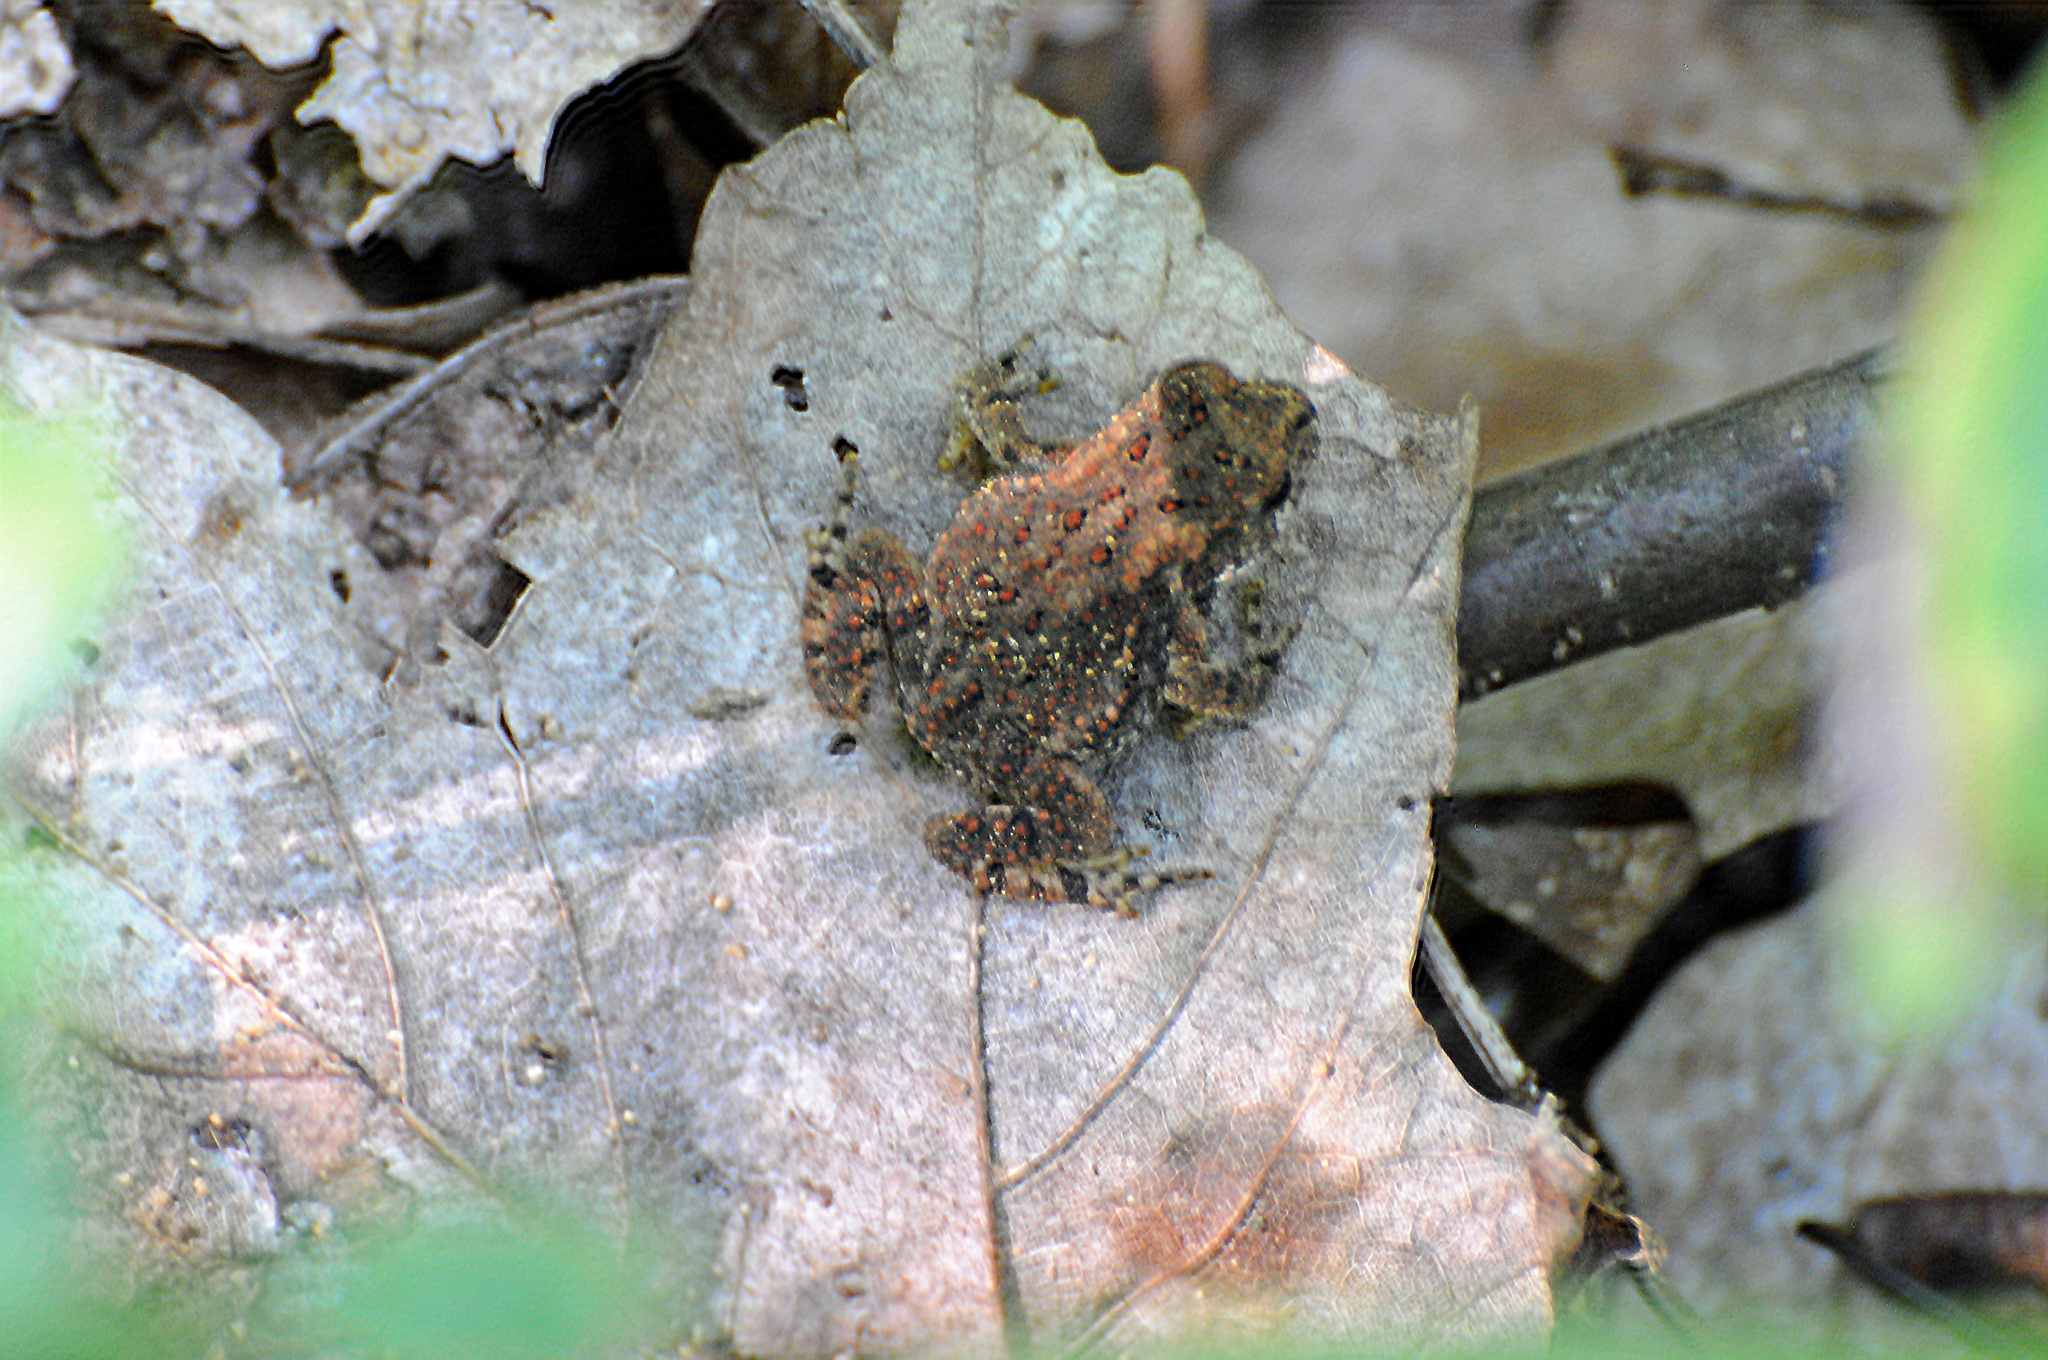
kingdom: Animalia
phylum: Chordata
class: Amphibia
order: Anura
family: Bufonidae
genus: Anaxyrus
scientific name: Anaxyrus americanus
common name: American toad
